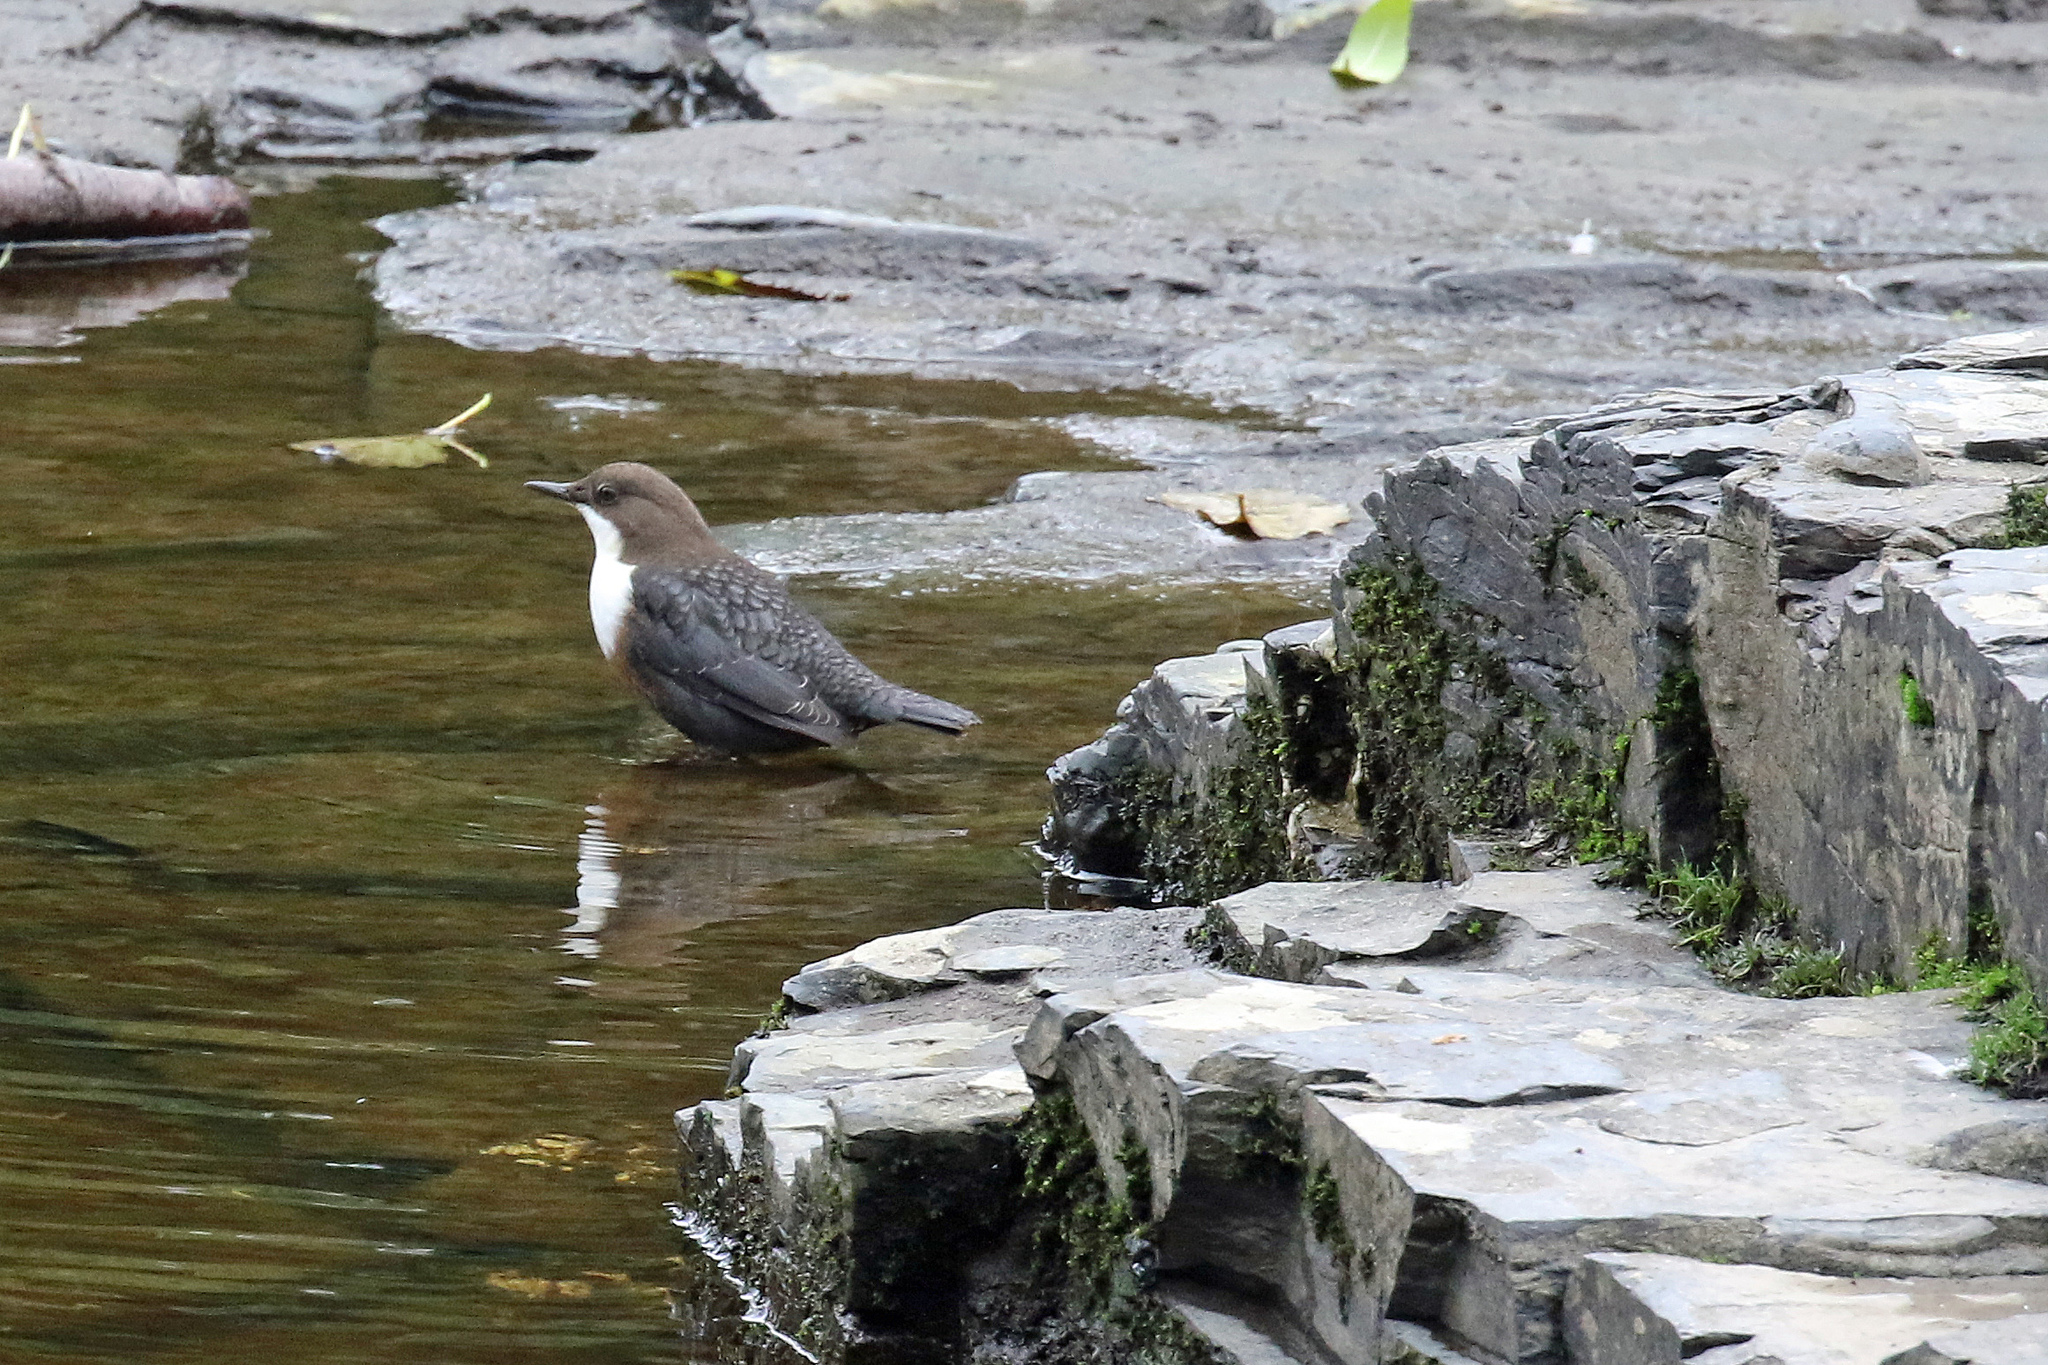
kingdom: Animalia
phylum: Chordata
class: Aves
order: Passeriformes
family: Cinclidae
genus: Cinclus
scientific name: Cinclus cinclus
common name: White-throated dipper
